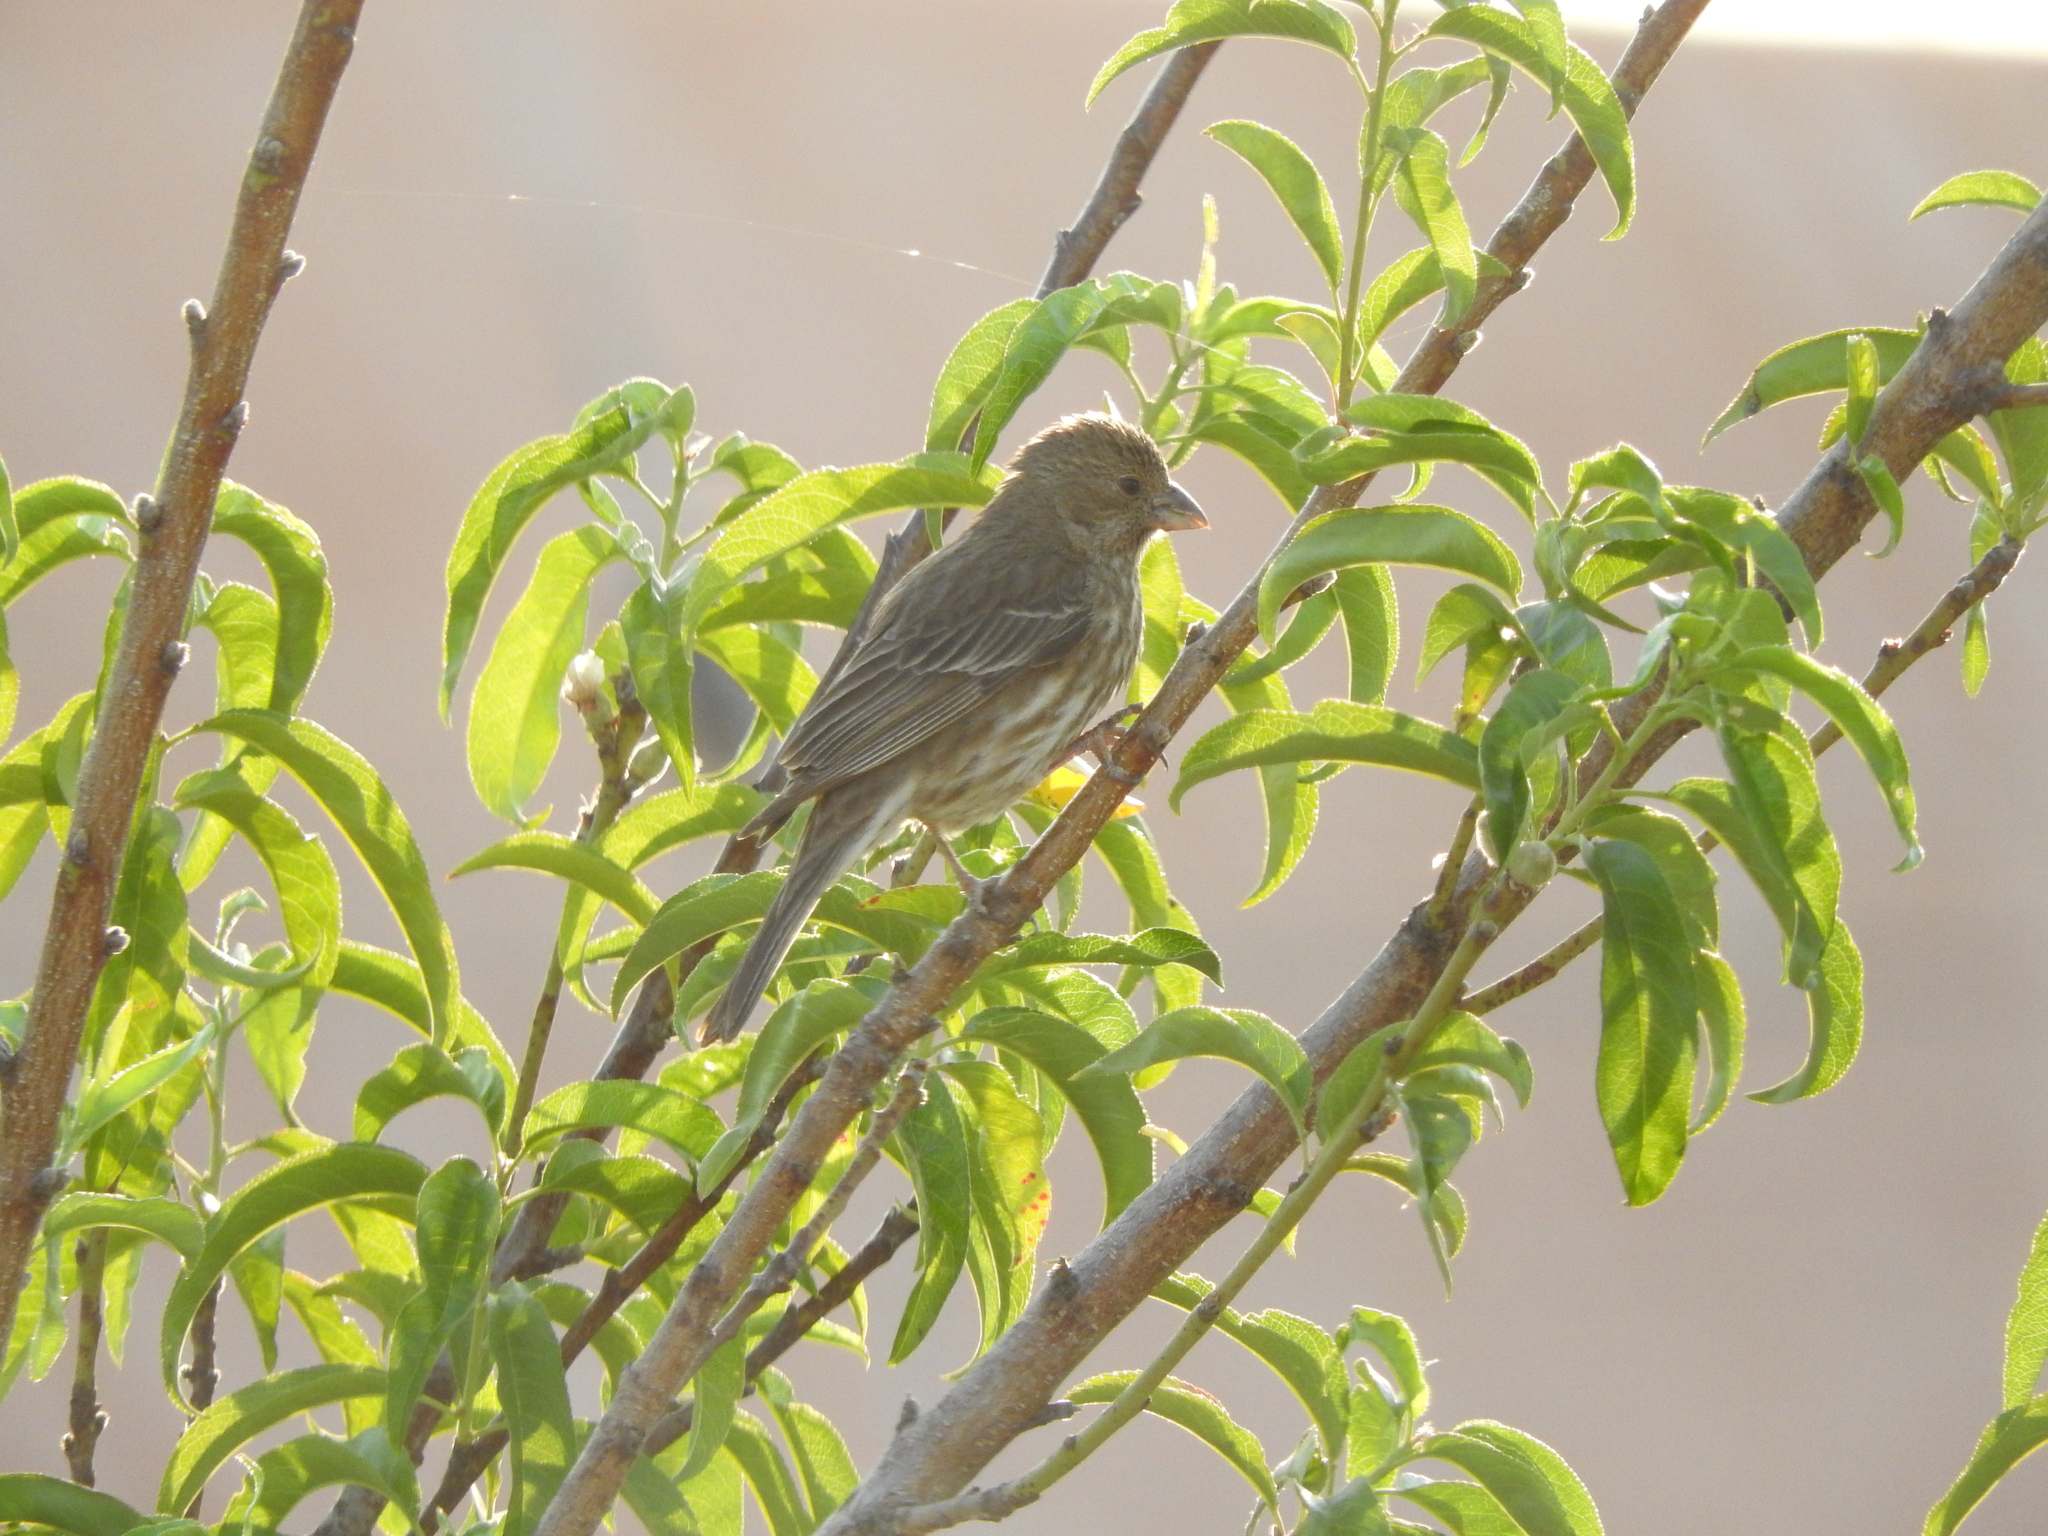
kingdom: Animalia
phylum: Chordata
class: Aves
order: Passeriformes
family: Fringillidae
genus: Haemorhous
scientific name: Haemorhous mexicanus
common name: House finch
